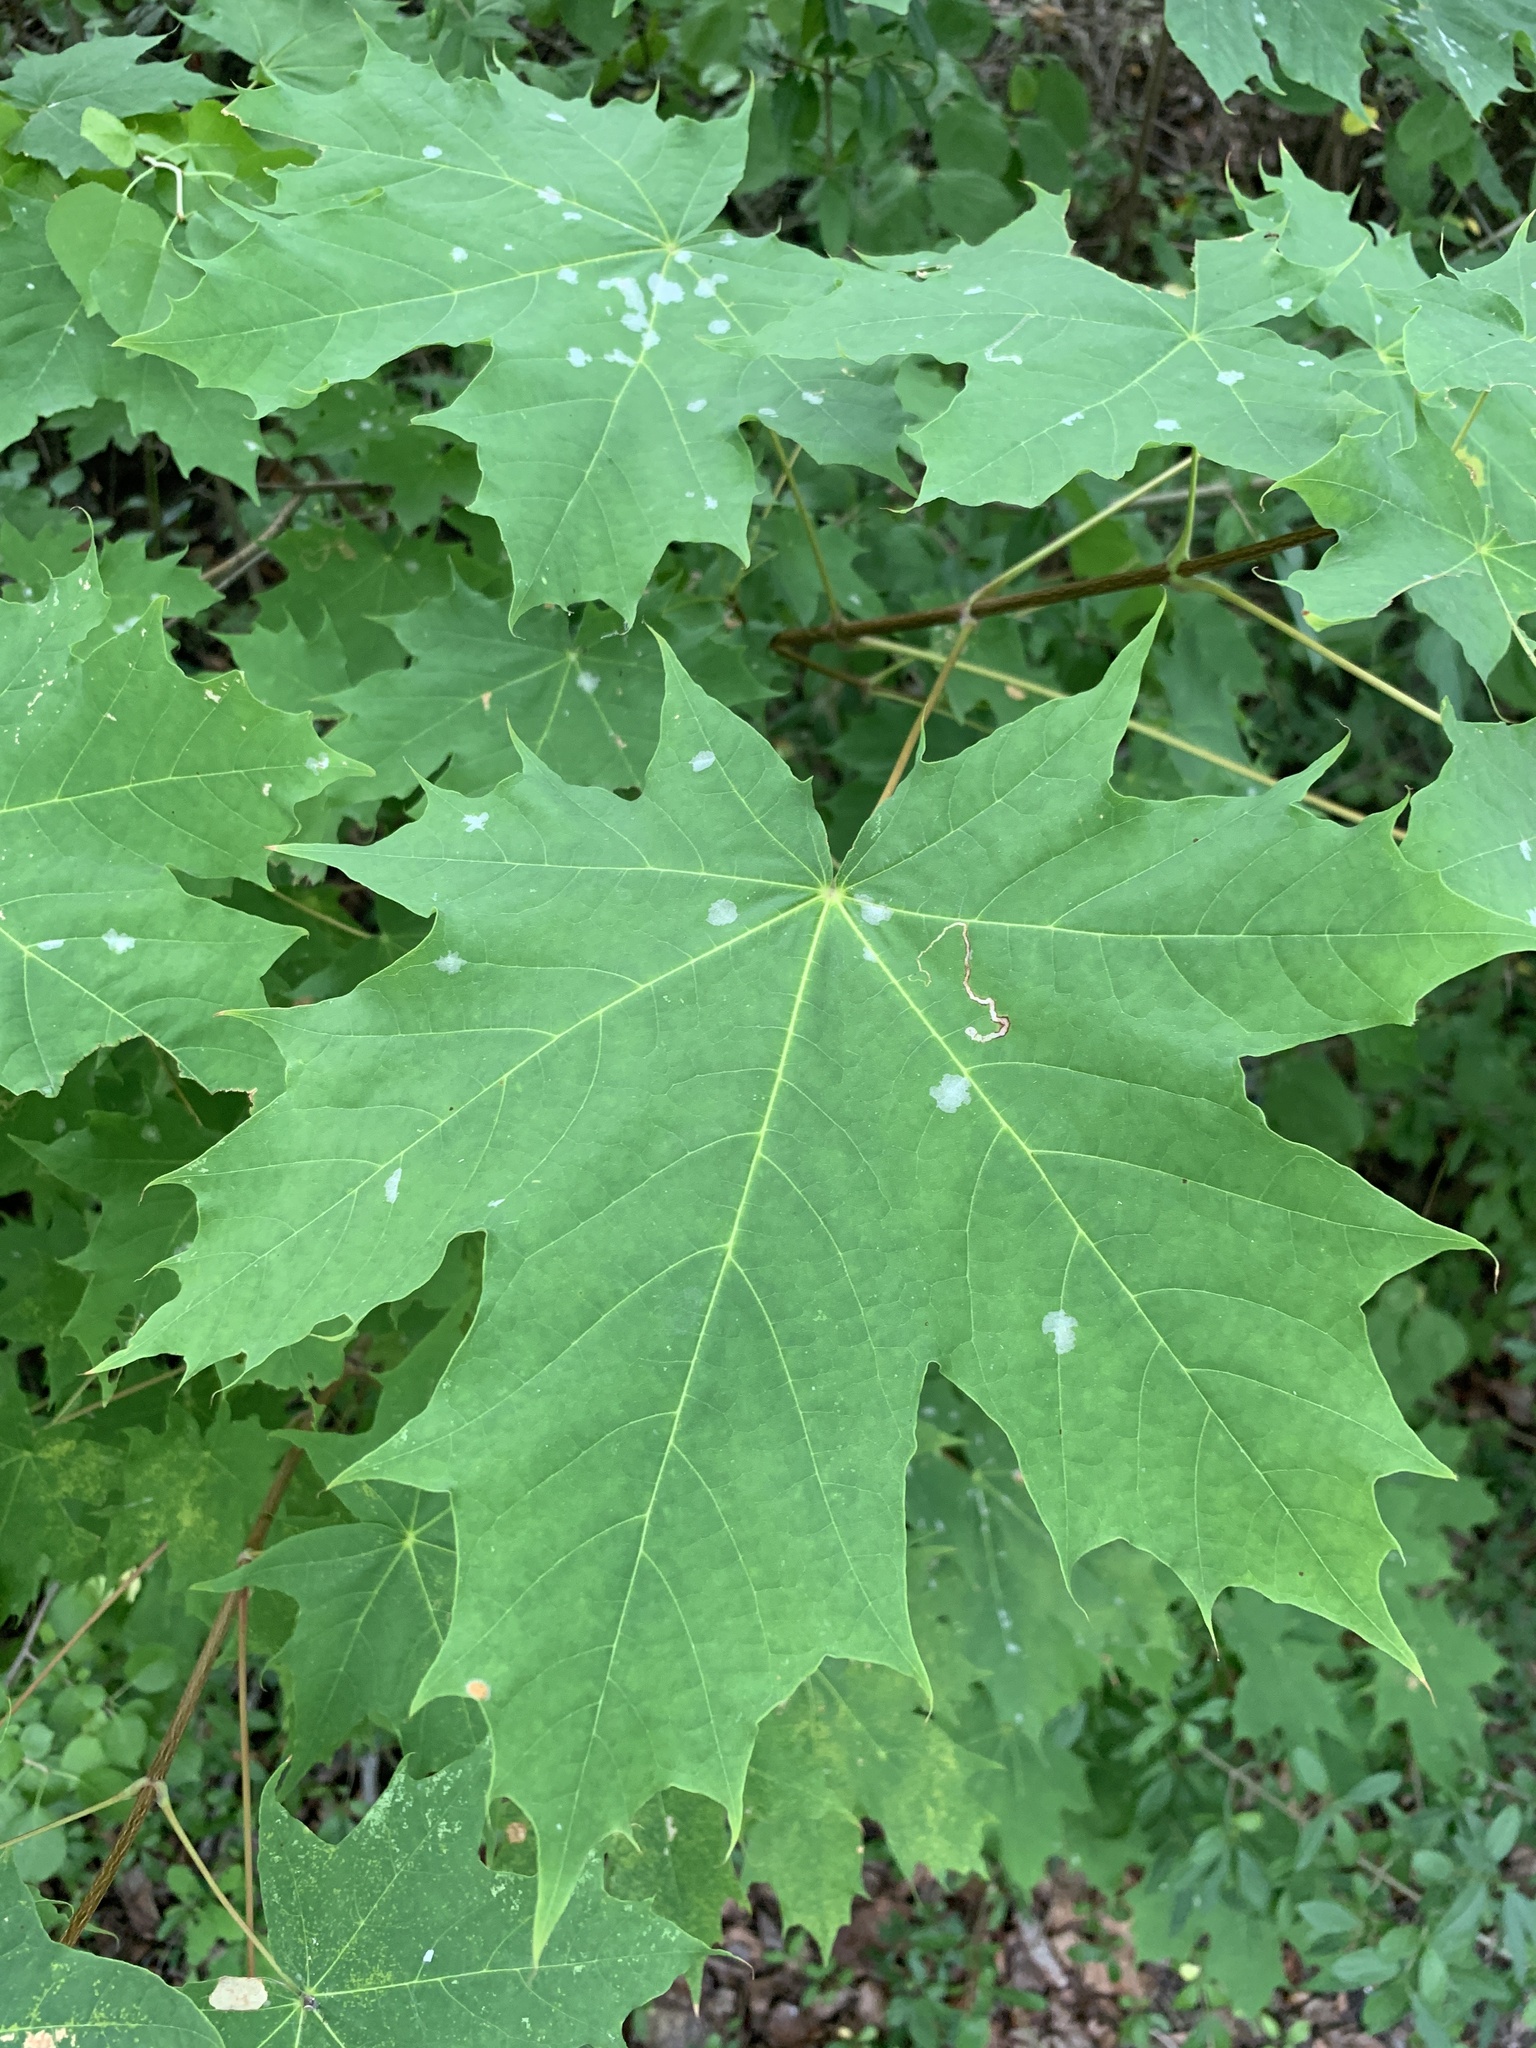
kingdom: Plantae
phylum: Tracheophyta
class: Magnoliopsida
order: Sapindales
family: Sapindaceae
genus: Acer
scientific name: Acer platanoides
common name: Norway maple
